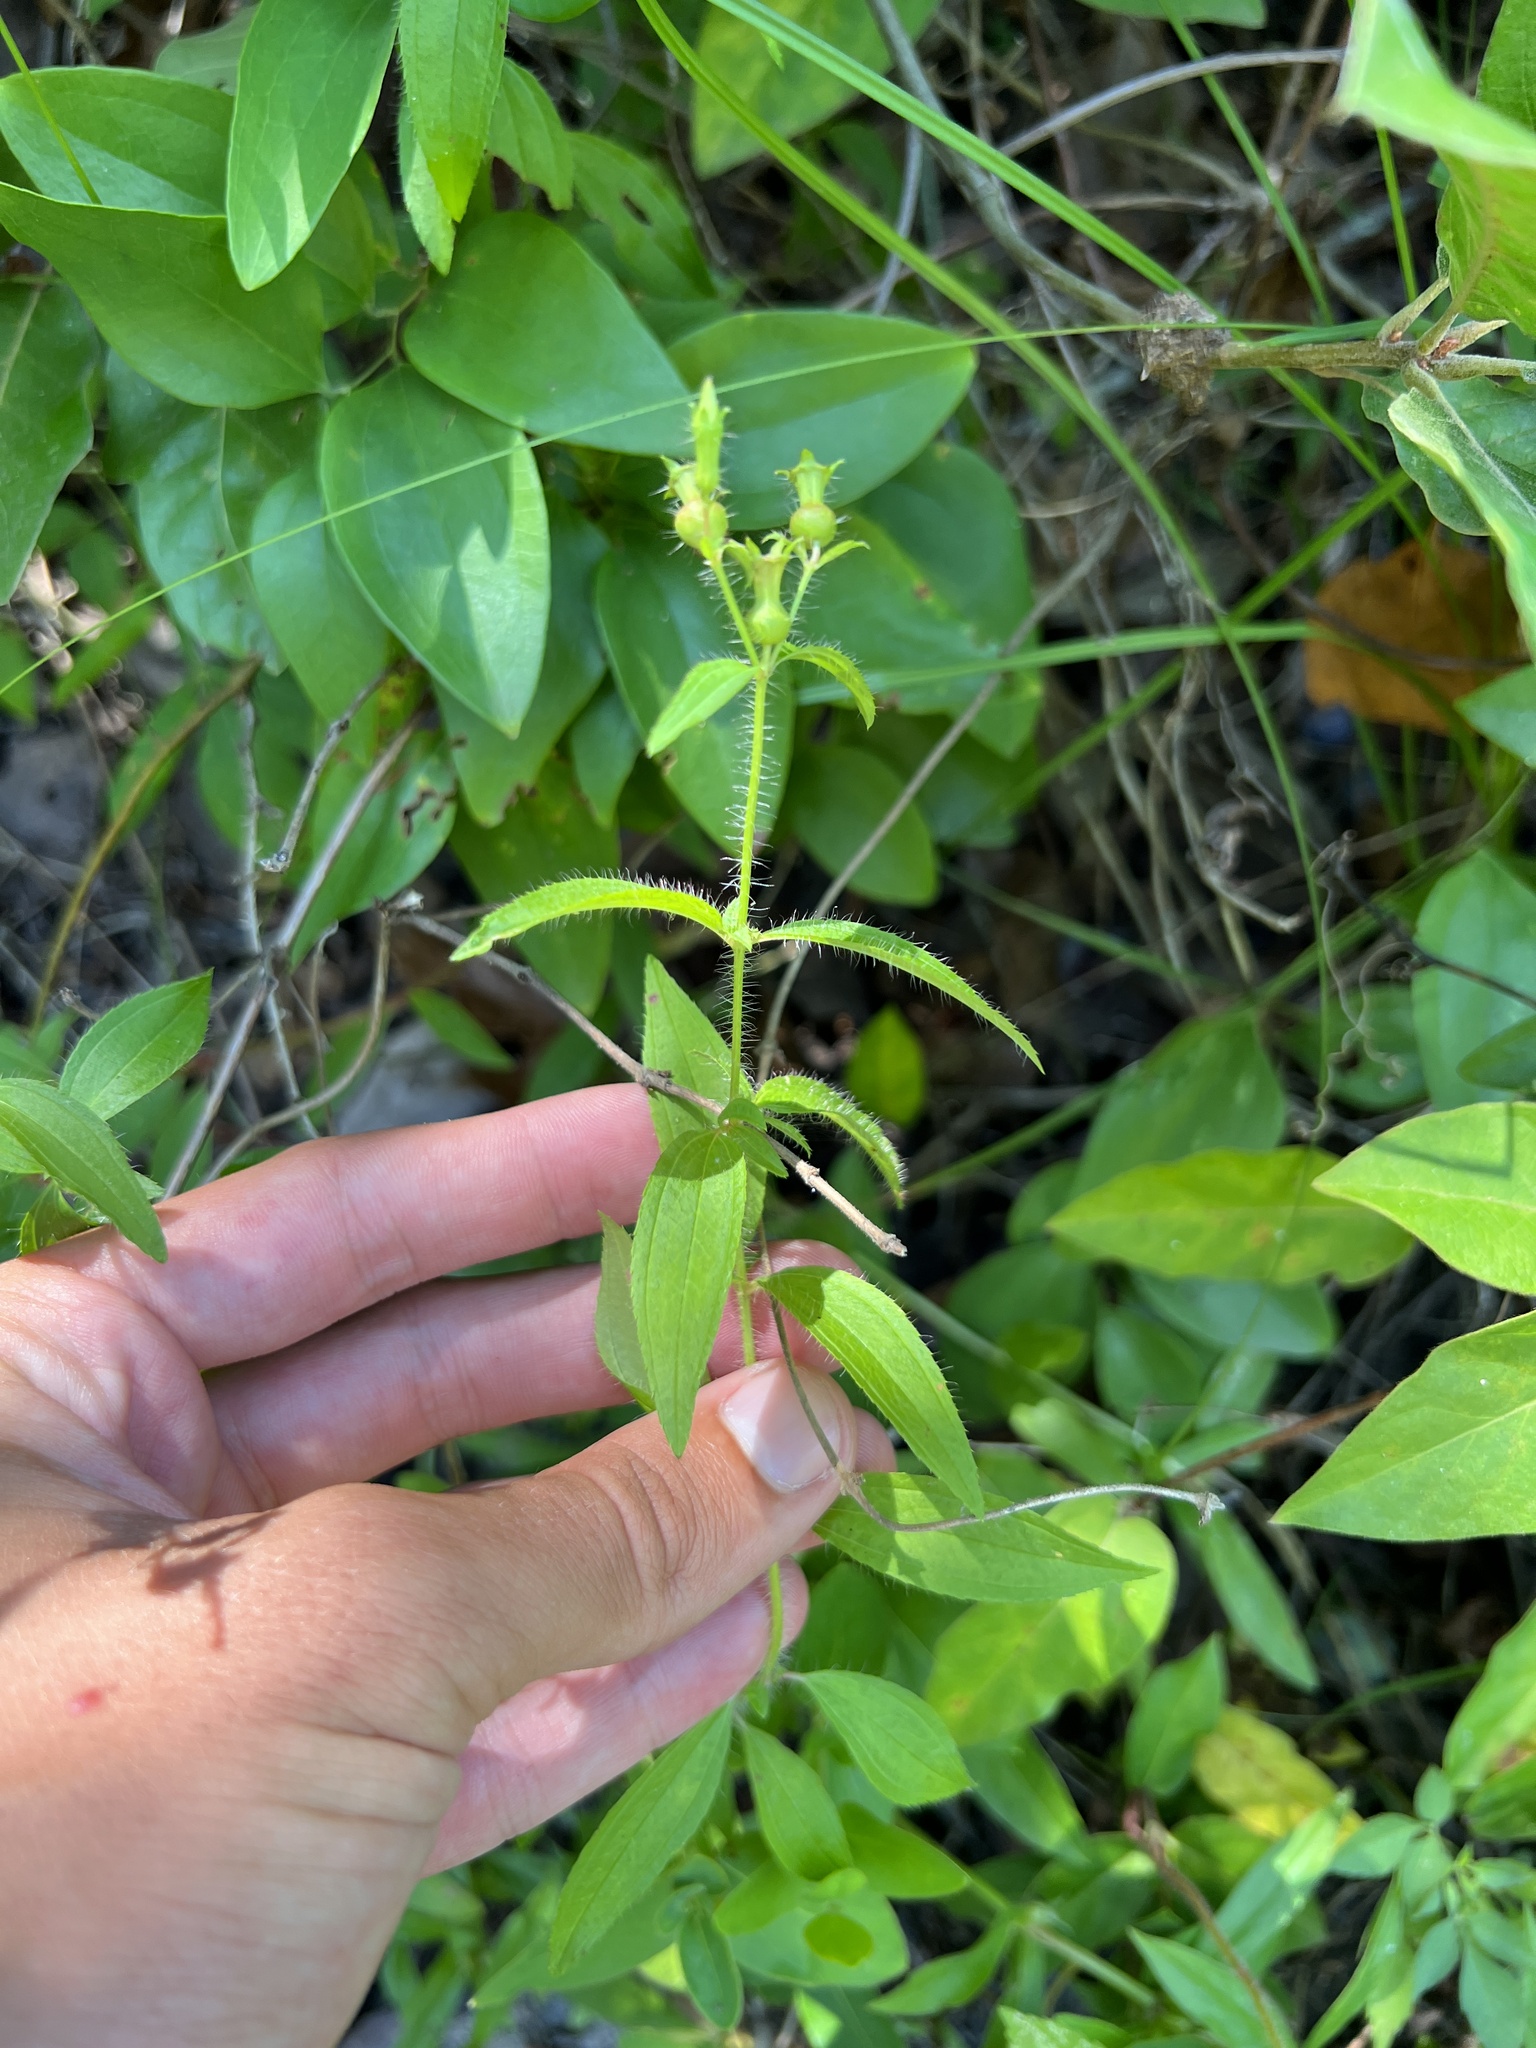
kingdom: Plantae
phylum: Tracheophyta
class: Magnoliopsida
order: Myrtales
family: Melastomataceae
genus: Rhexia
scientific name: Rhexia mariana
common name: Dull meadow-pitcher
